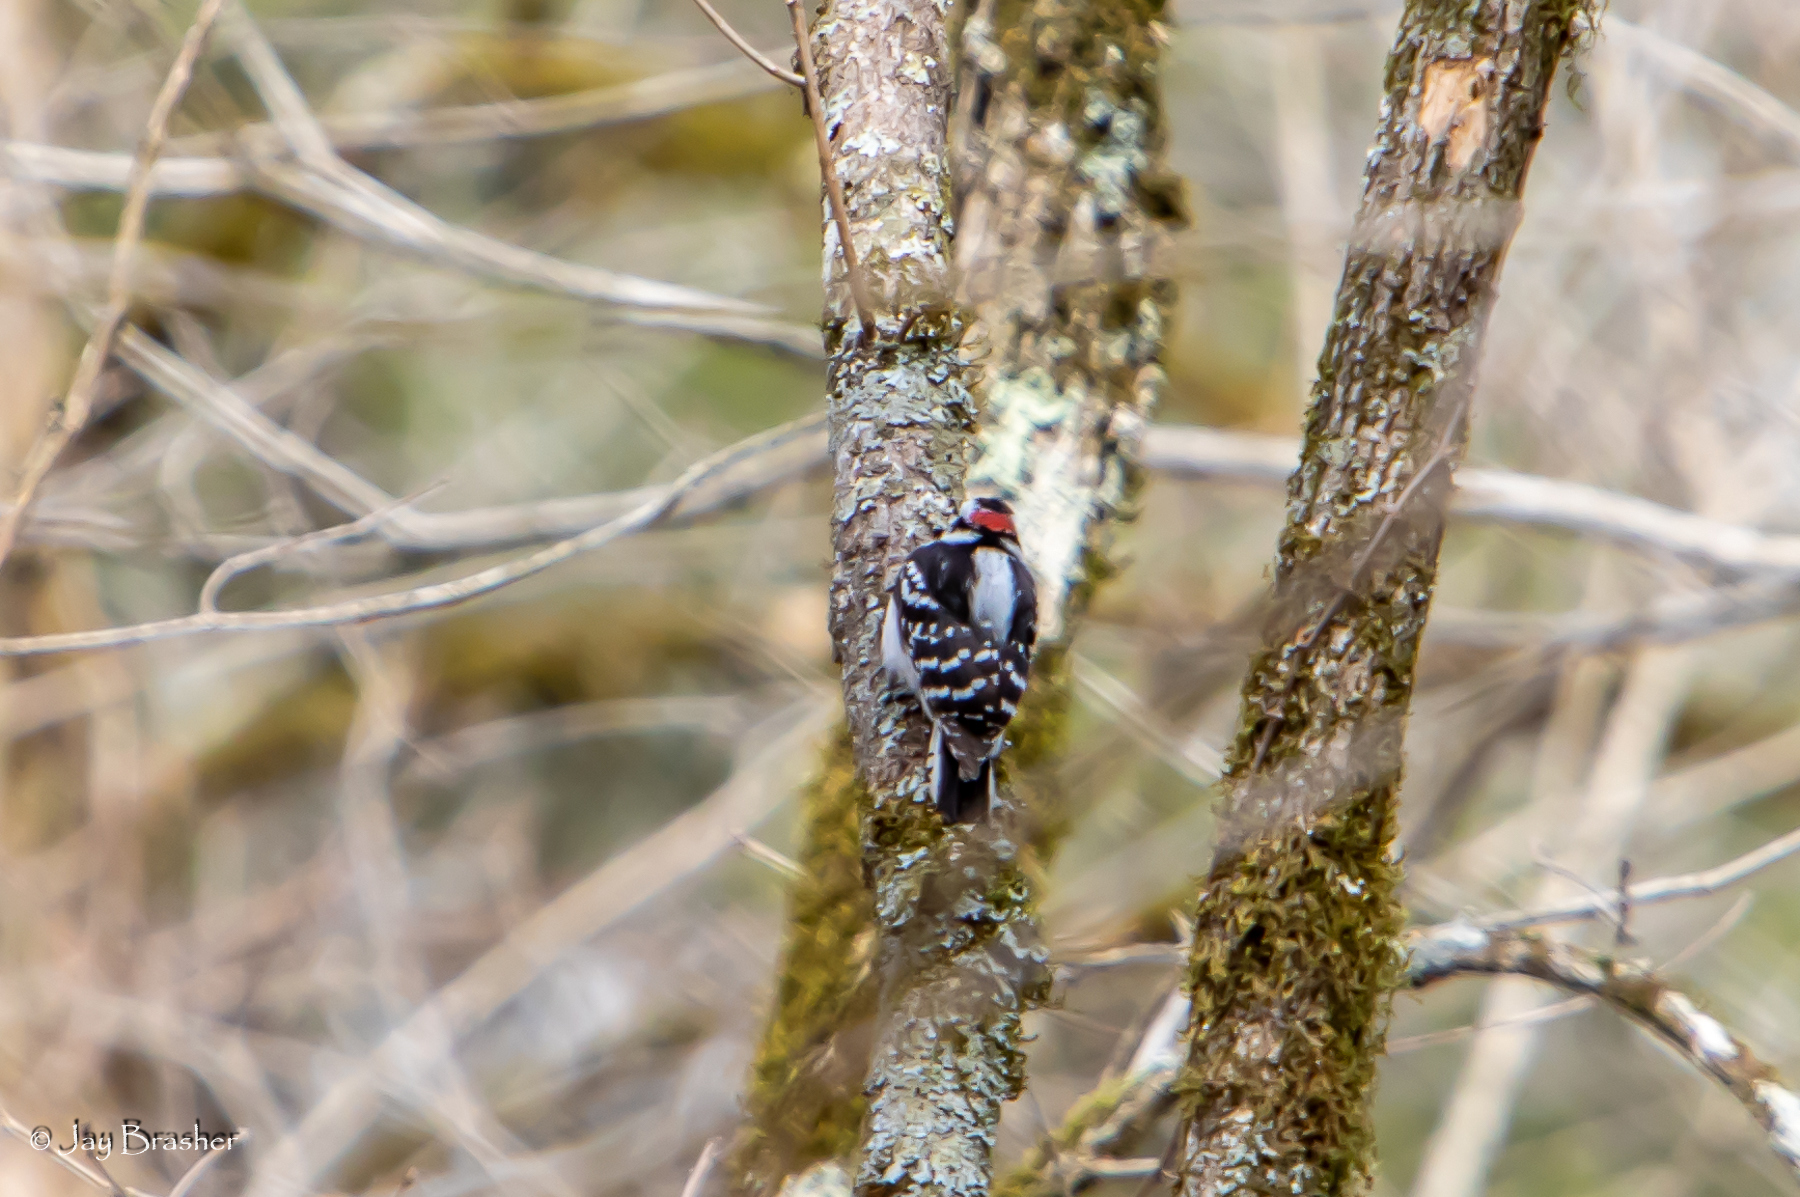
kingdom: Animalia
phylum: Chordata
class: Aves
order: Piciformes
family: Picidae
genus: Dryobates
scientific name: Dryobates pubescens
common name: Downy woodpecker
